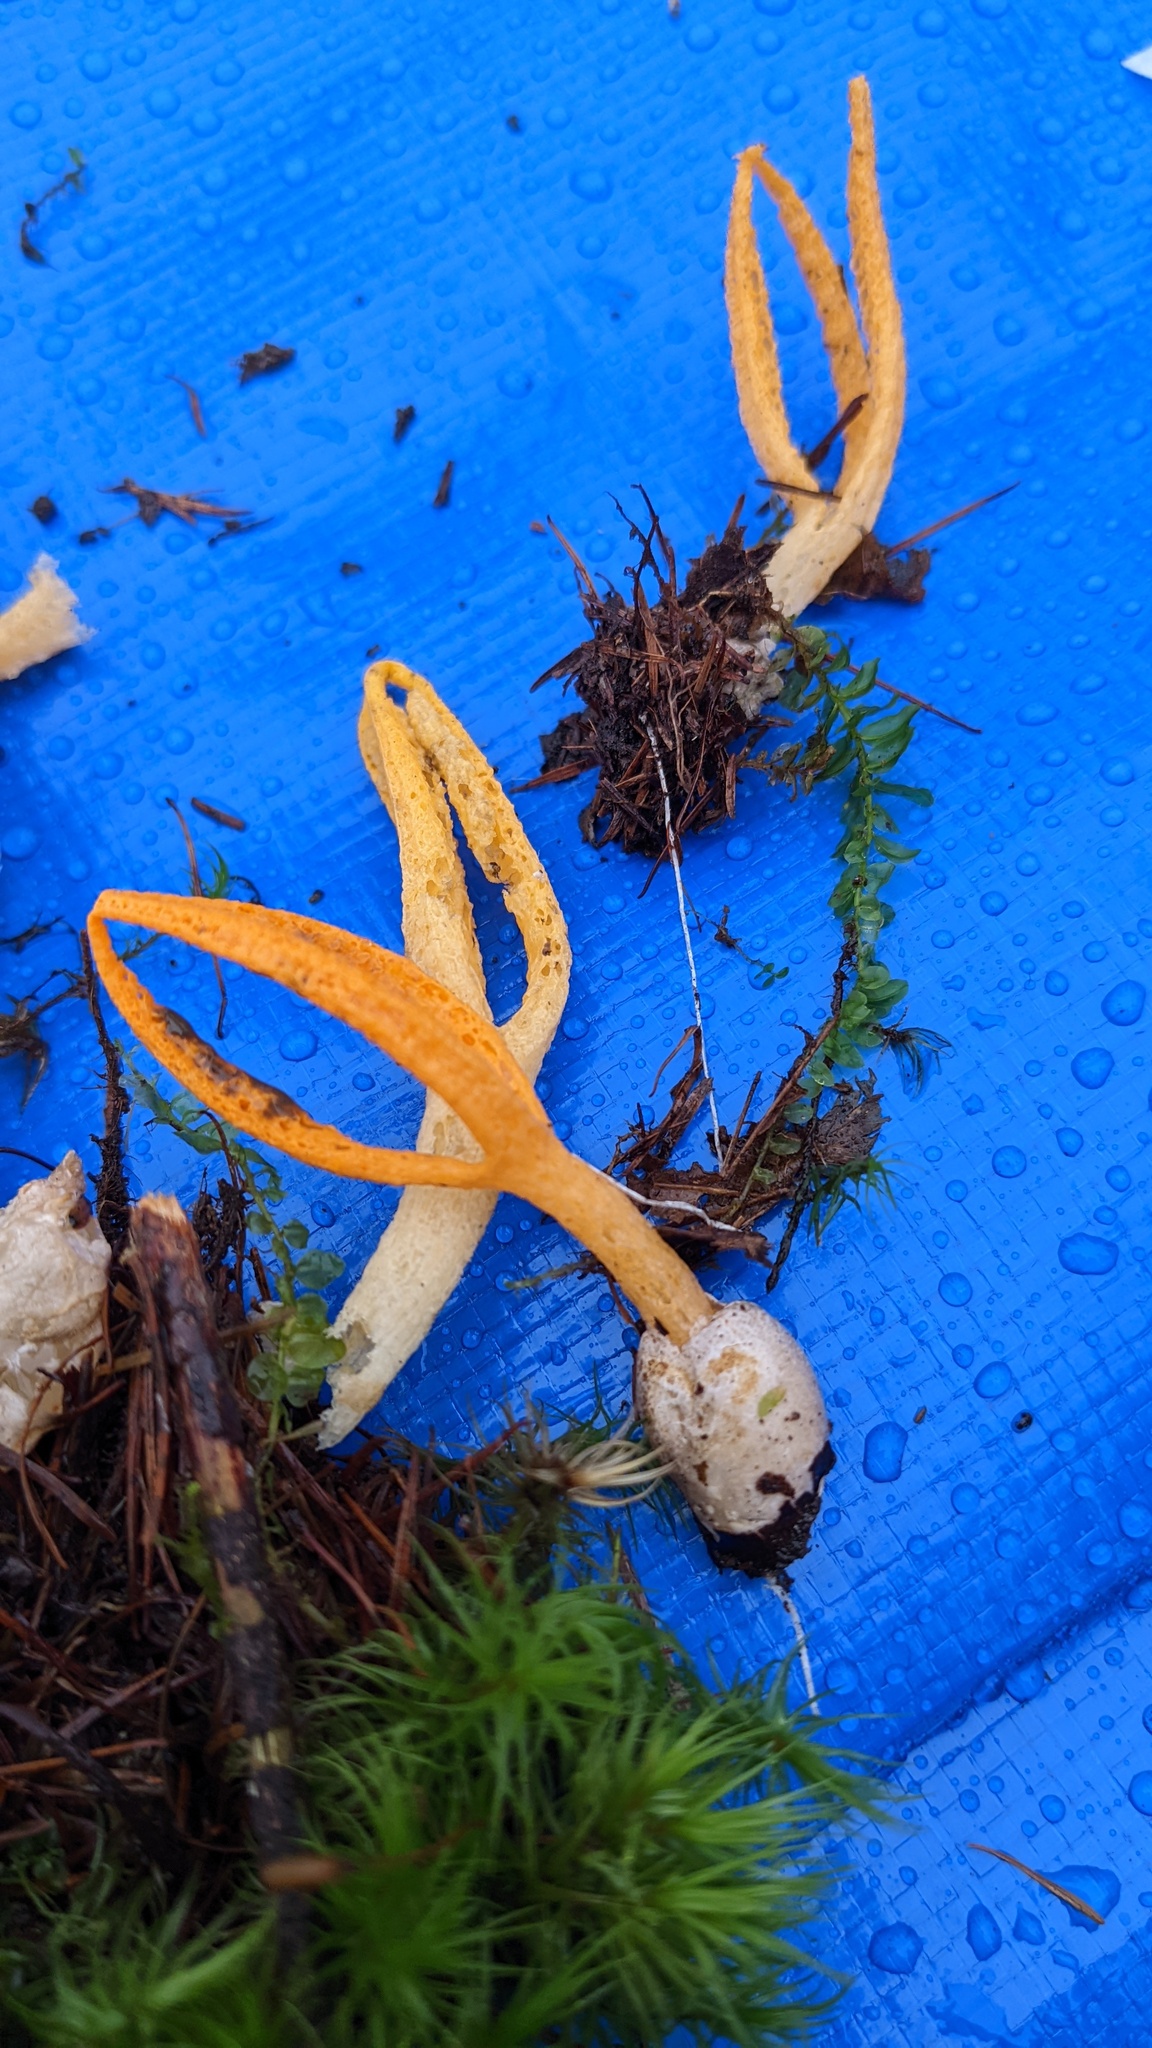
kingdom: Fungi
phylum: Basidiomycota
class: Agaricomycetes
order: Phallales
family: Phallaceae
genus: Pseudocolus
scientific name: Pseudocolus fusiformis
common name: Stinky squid
